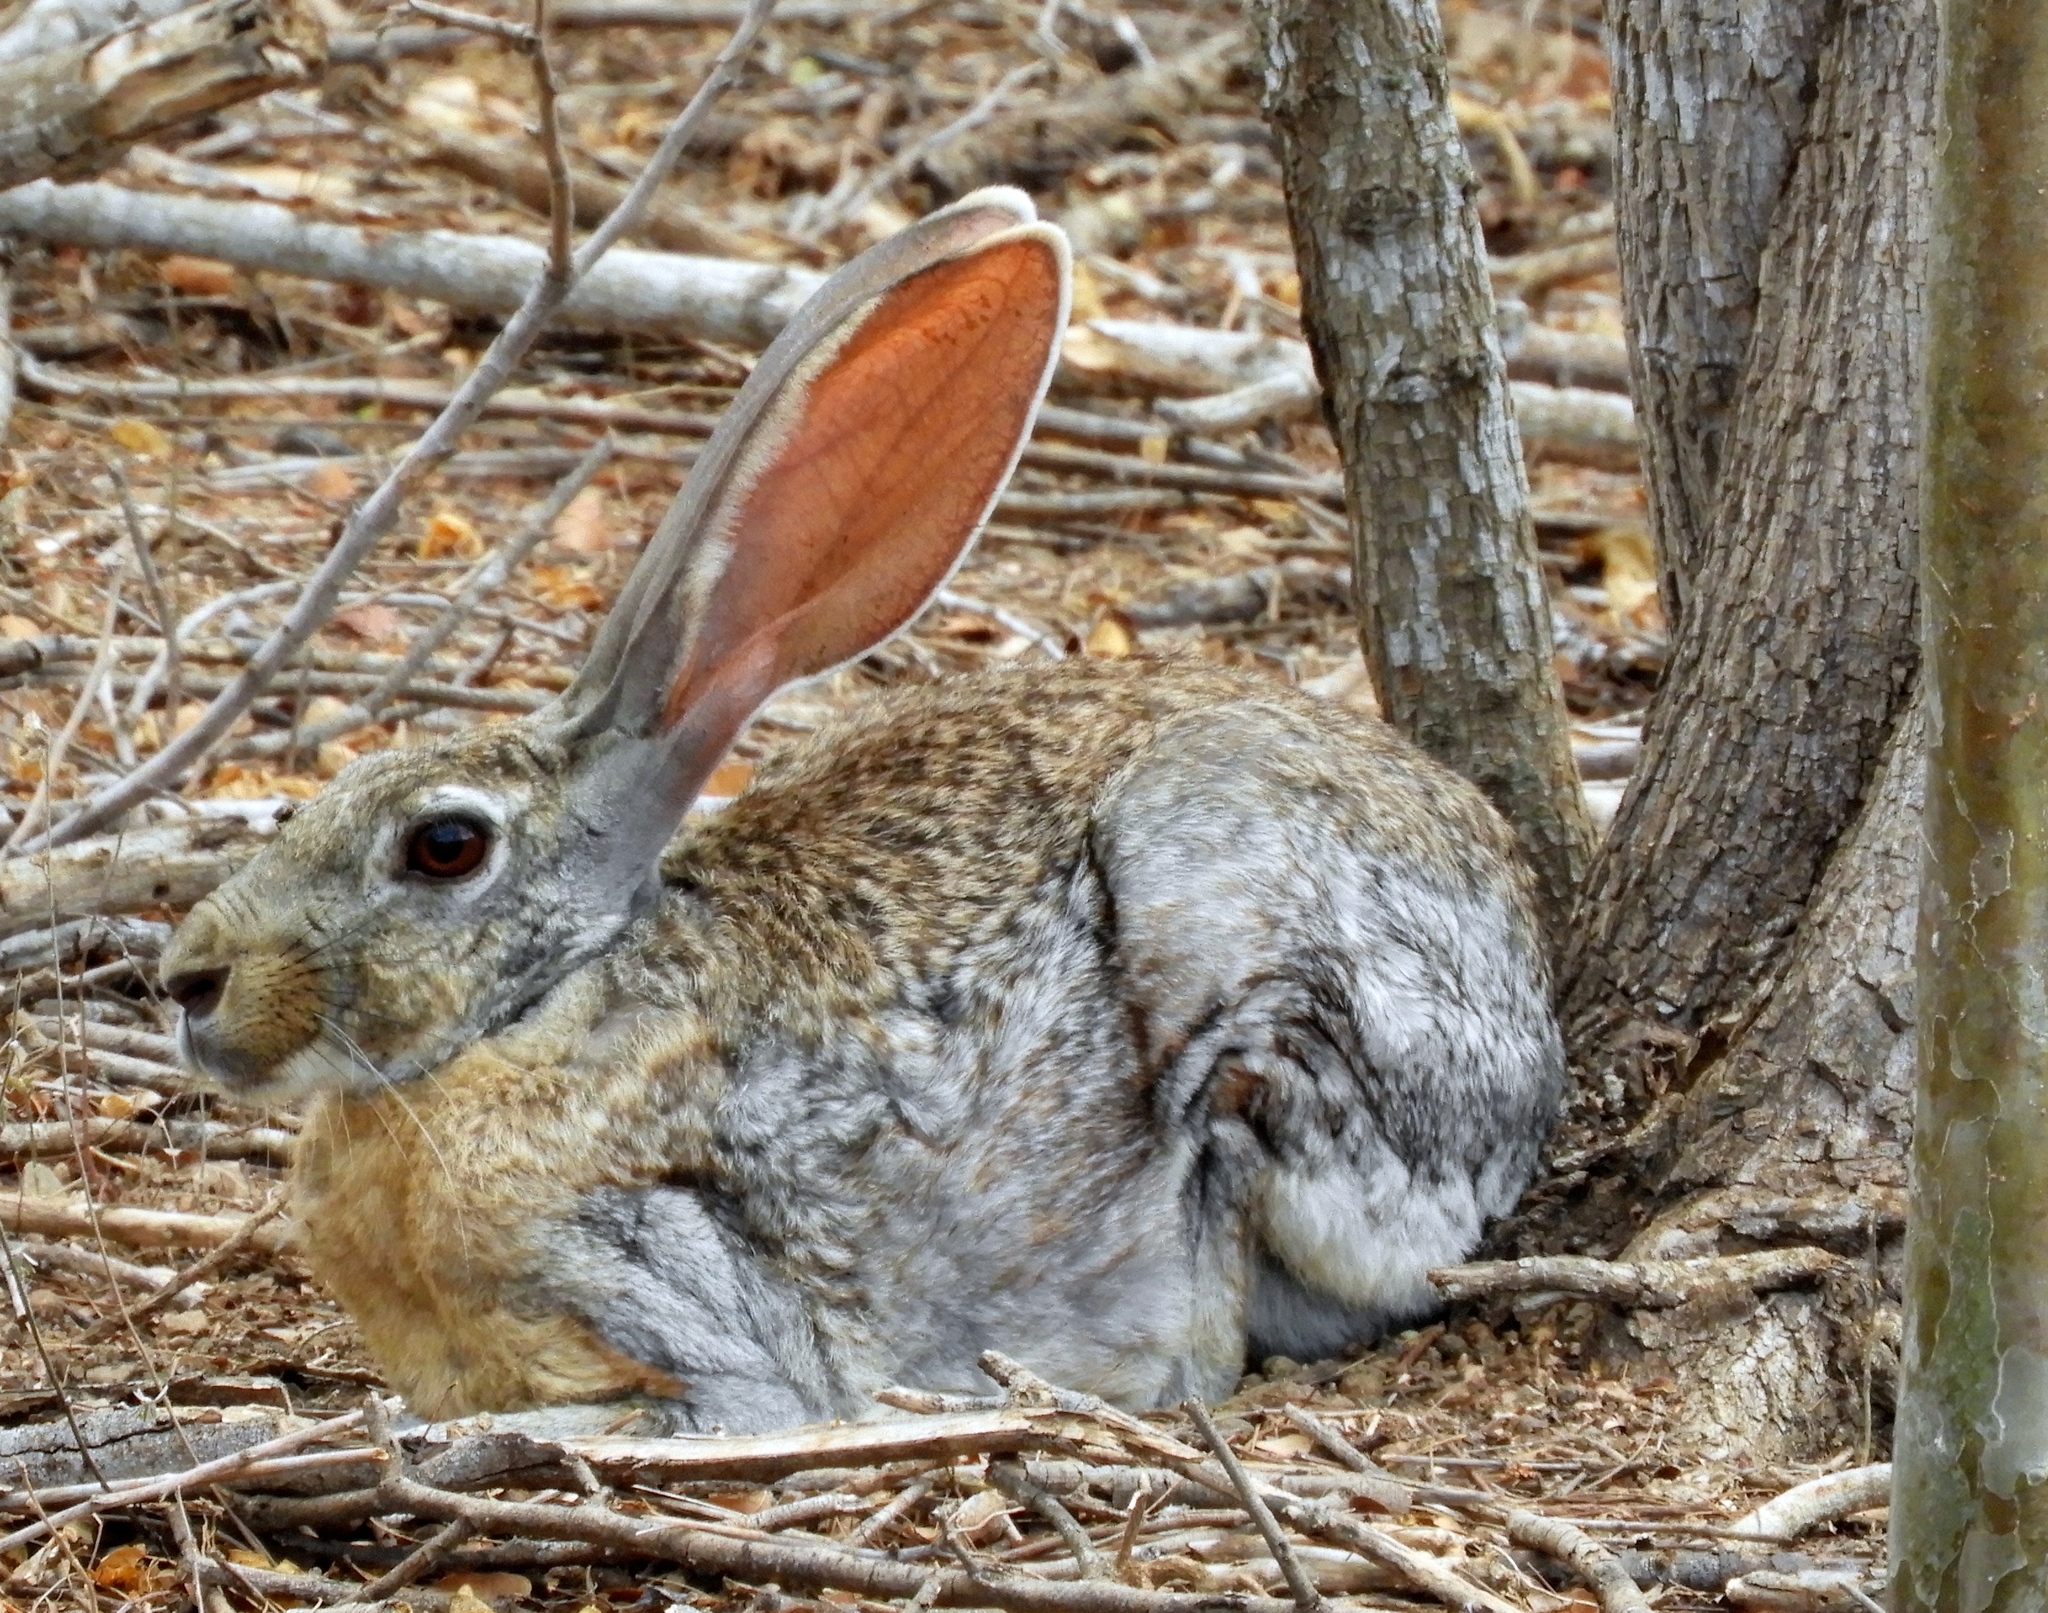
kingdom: Animalia
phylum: Chordata
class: Mammalia
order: Lagomorpha
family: Leporidae
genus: Lepus
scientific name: Lepus alleni
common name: Antelope jackrabbit
